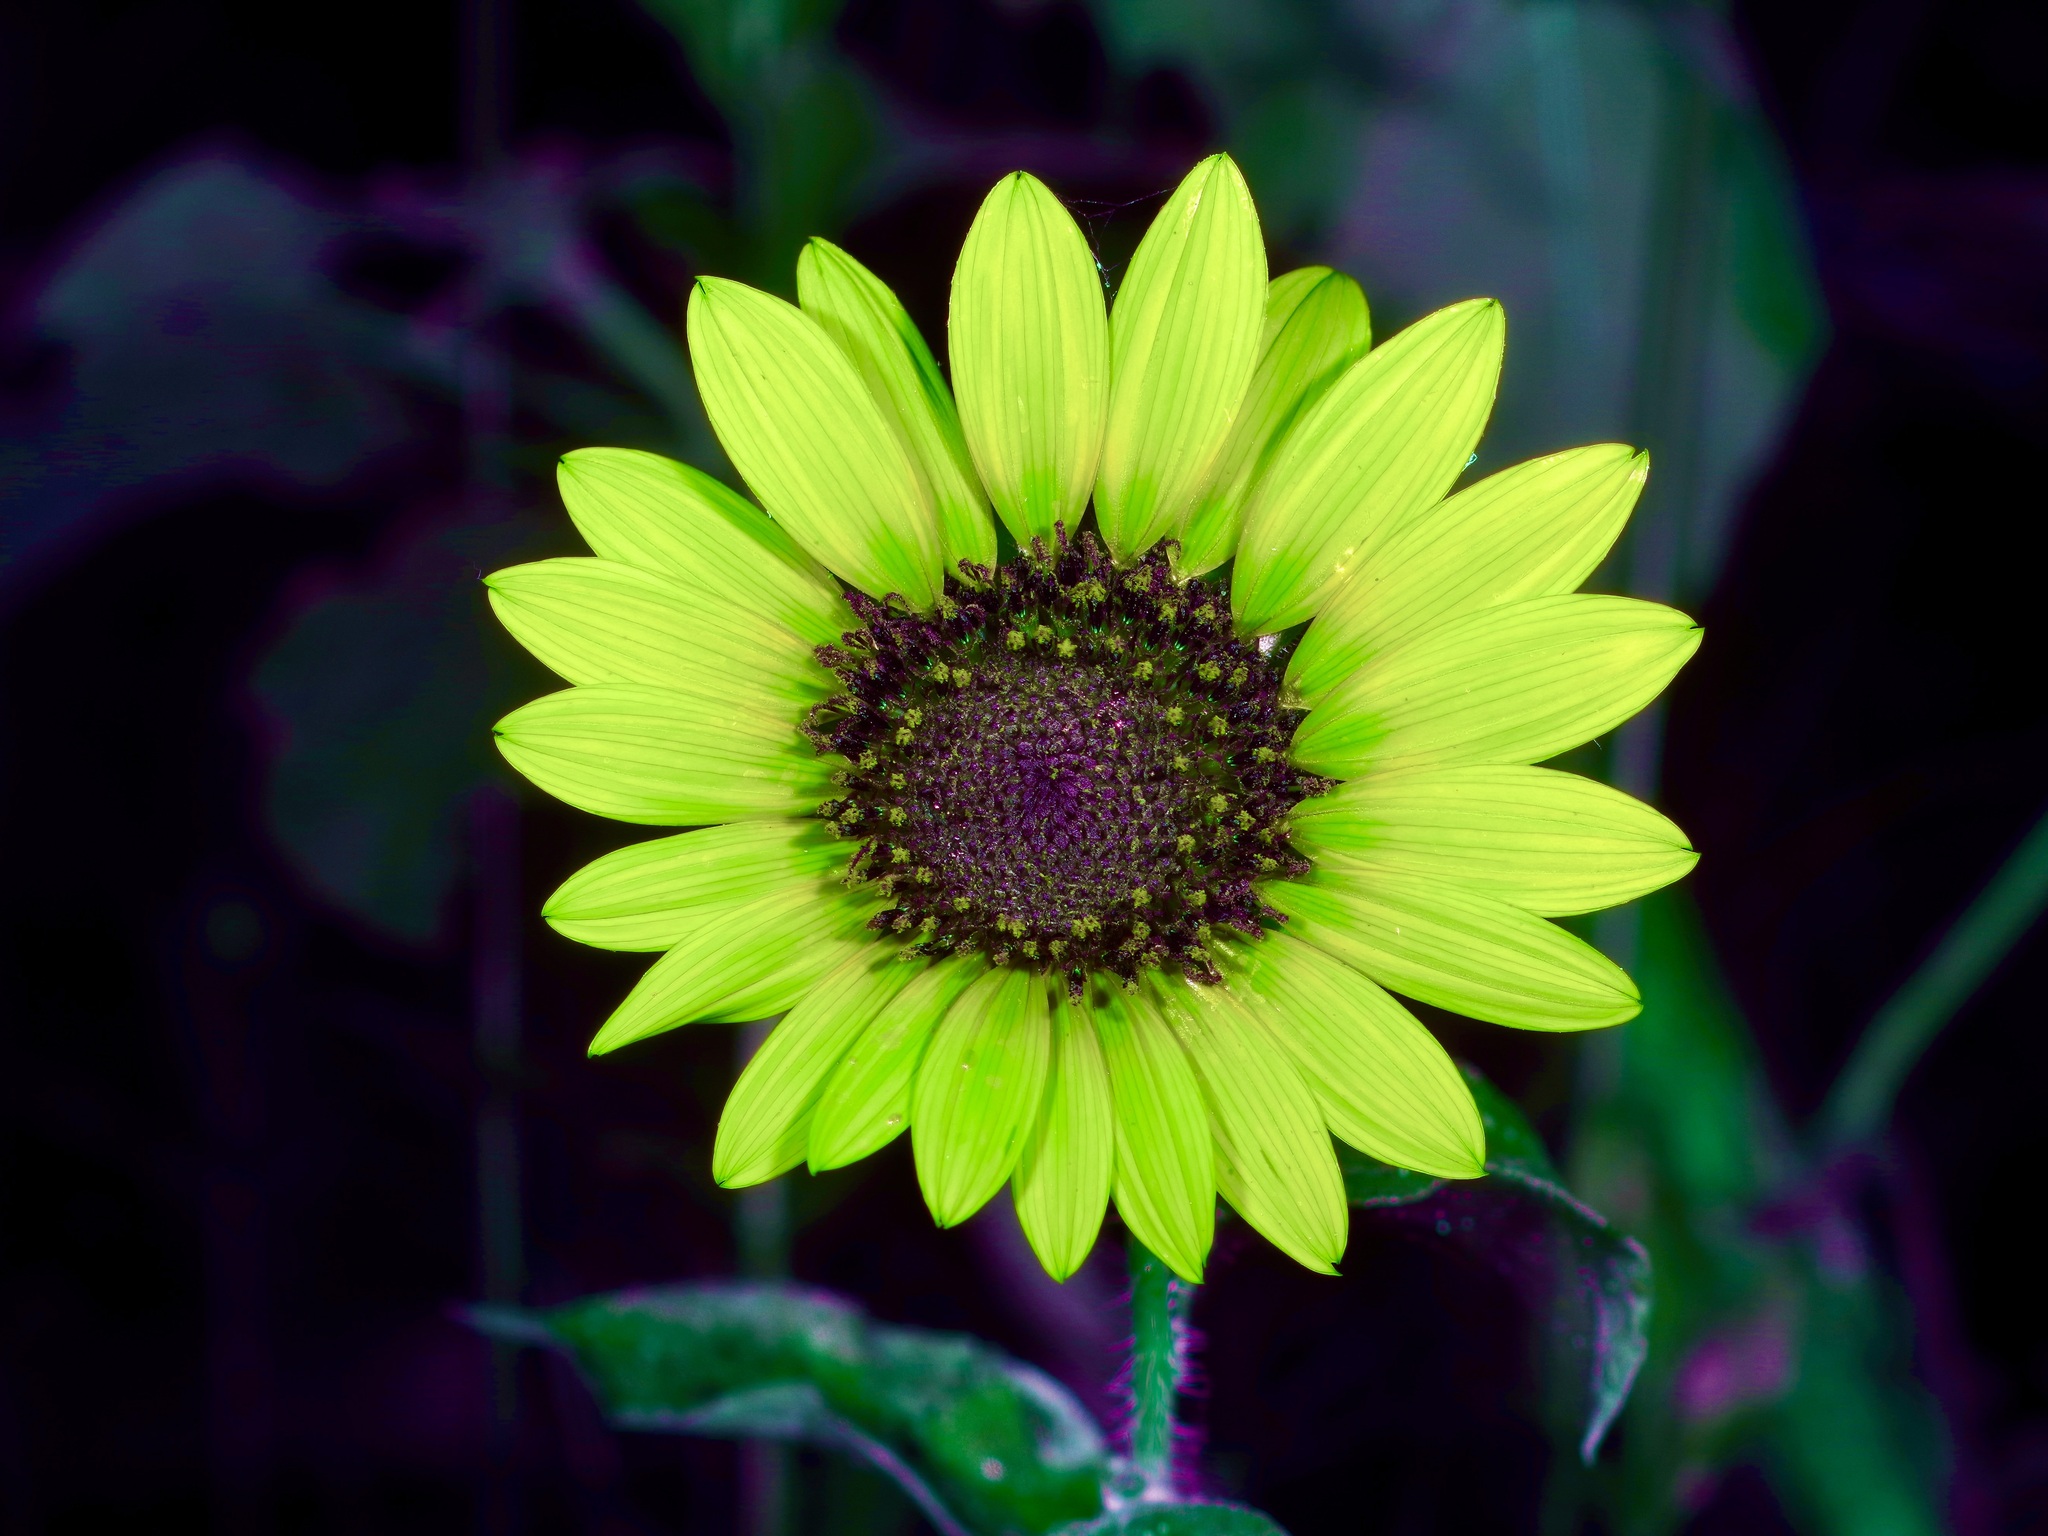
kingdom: Plantae
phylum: Tracheophyta
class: Magnoliopsida
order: Asterales
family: Asteraceae
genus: Helianthus
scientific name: Helianthus annuus
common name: Sunflower
